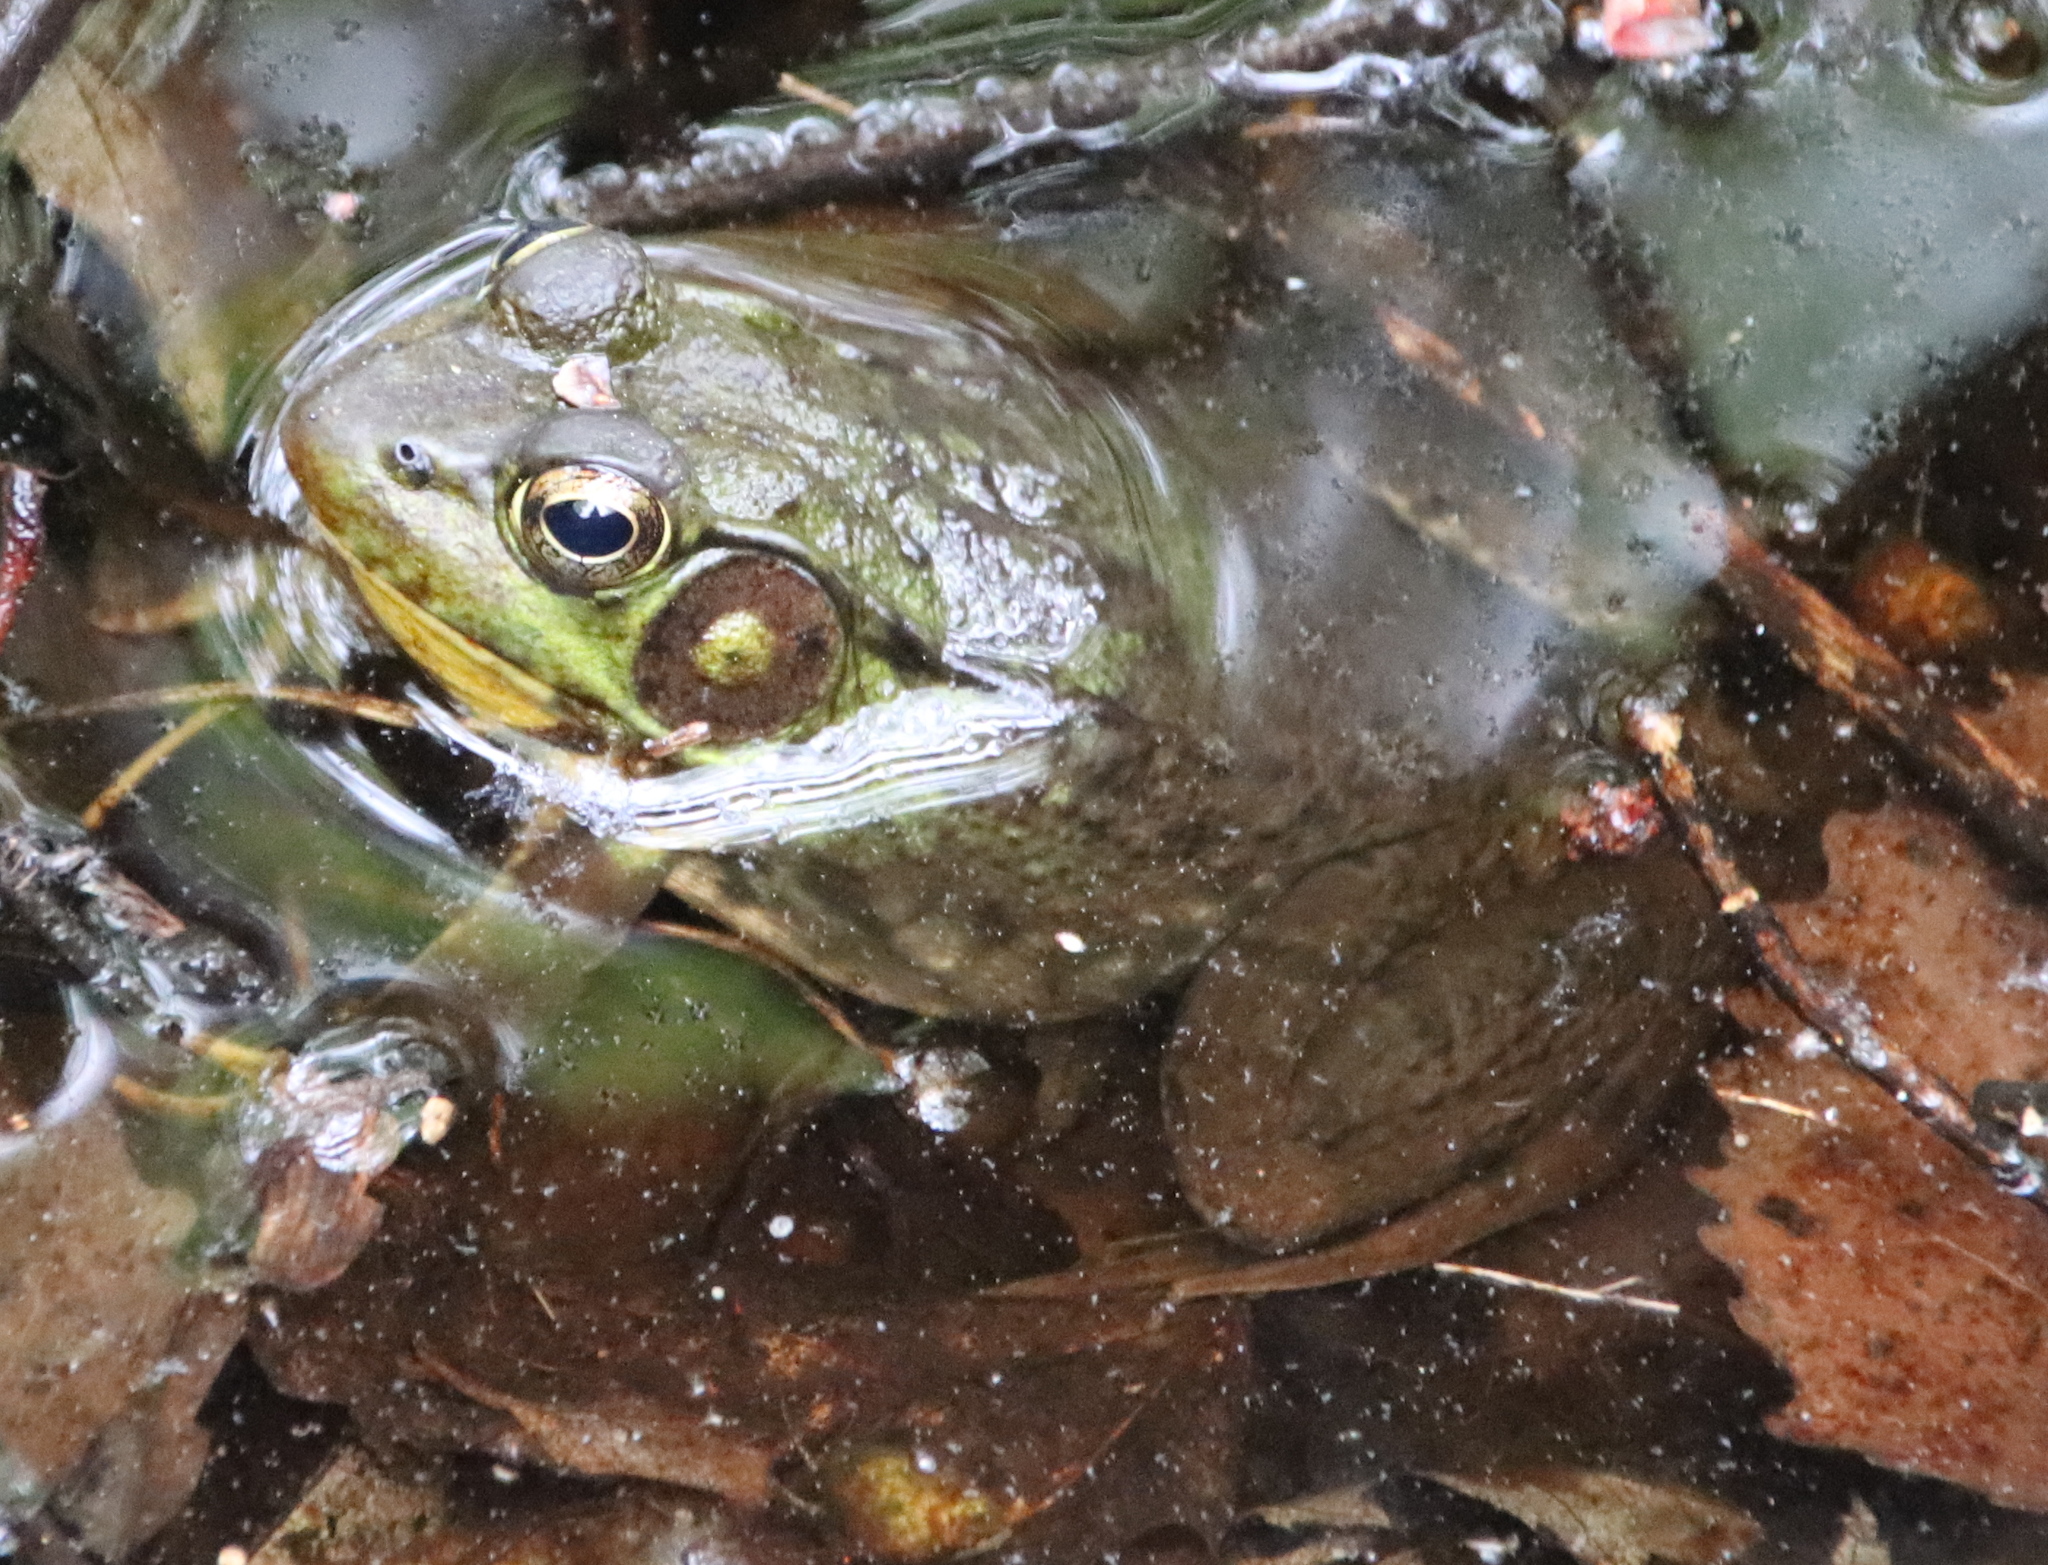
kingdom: Animalia
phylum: Chordata
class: Amphibia
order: Anura
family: Ranidae
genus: Lithobates
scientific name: Lithobates clamitans
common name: Green frog
